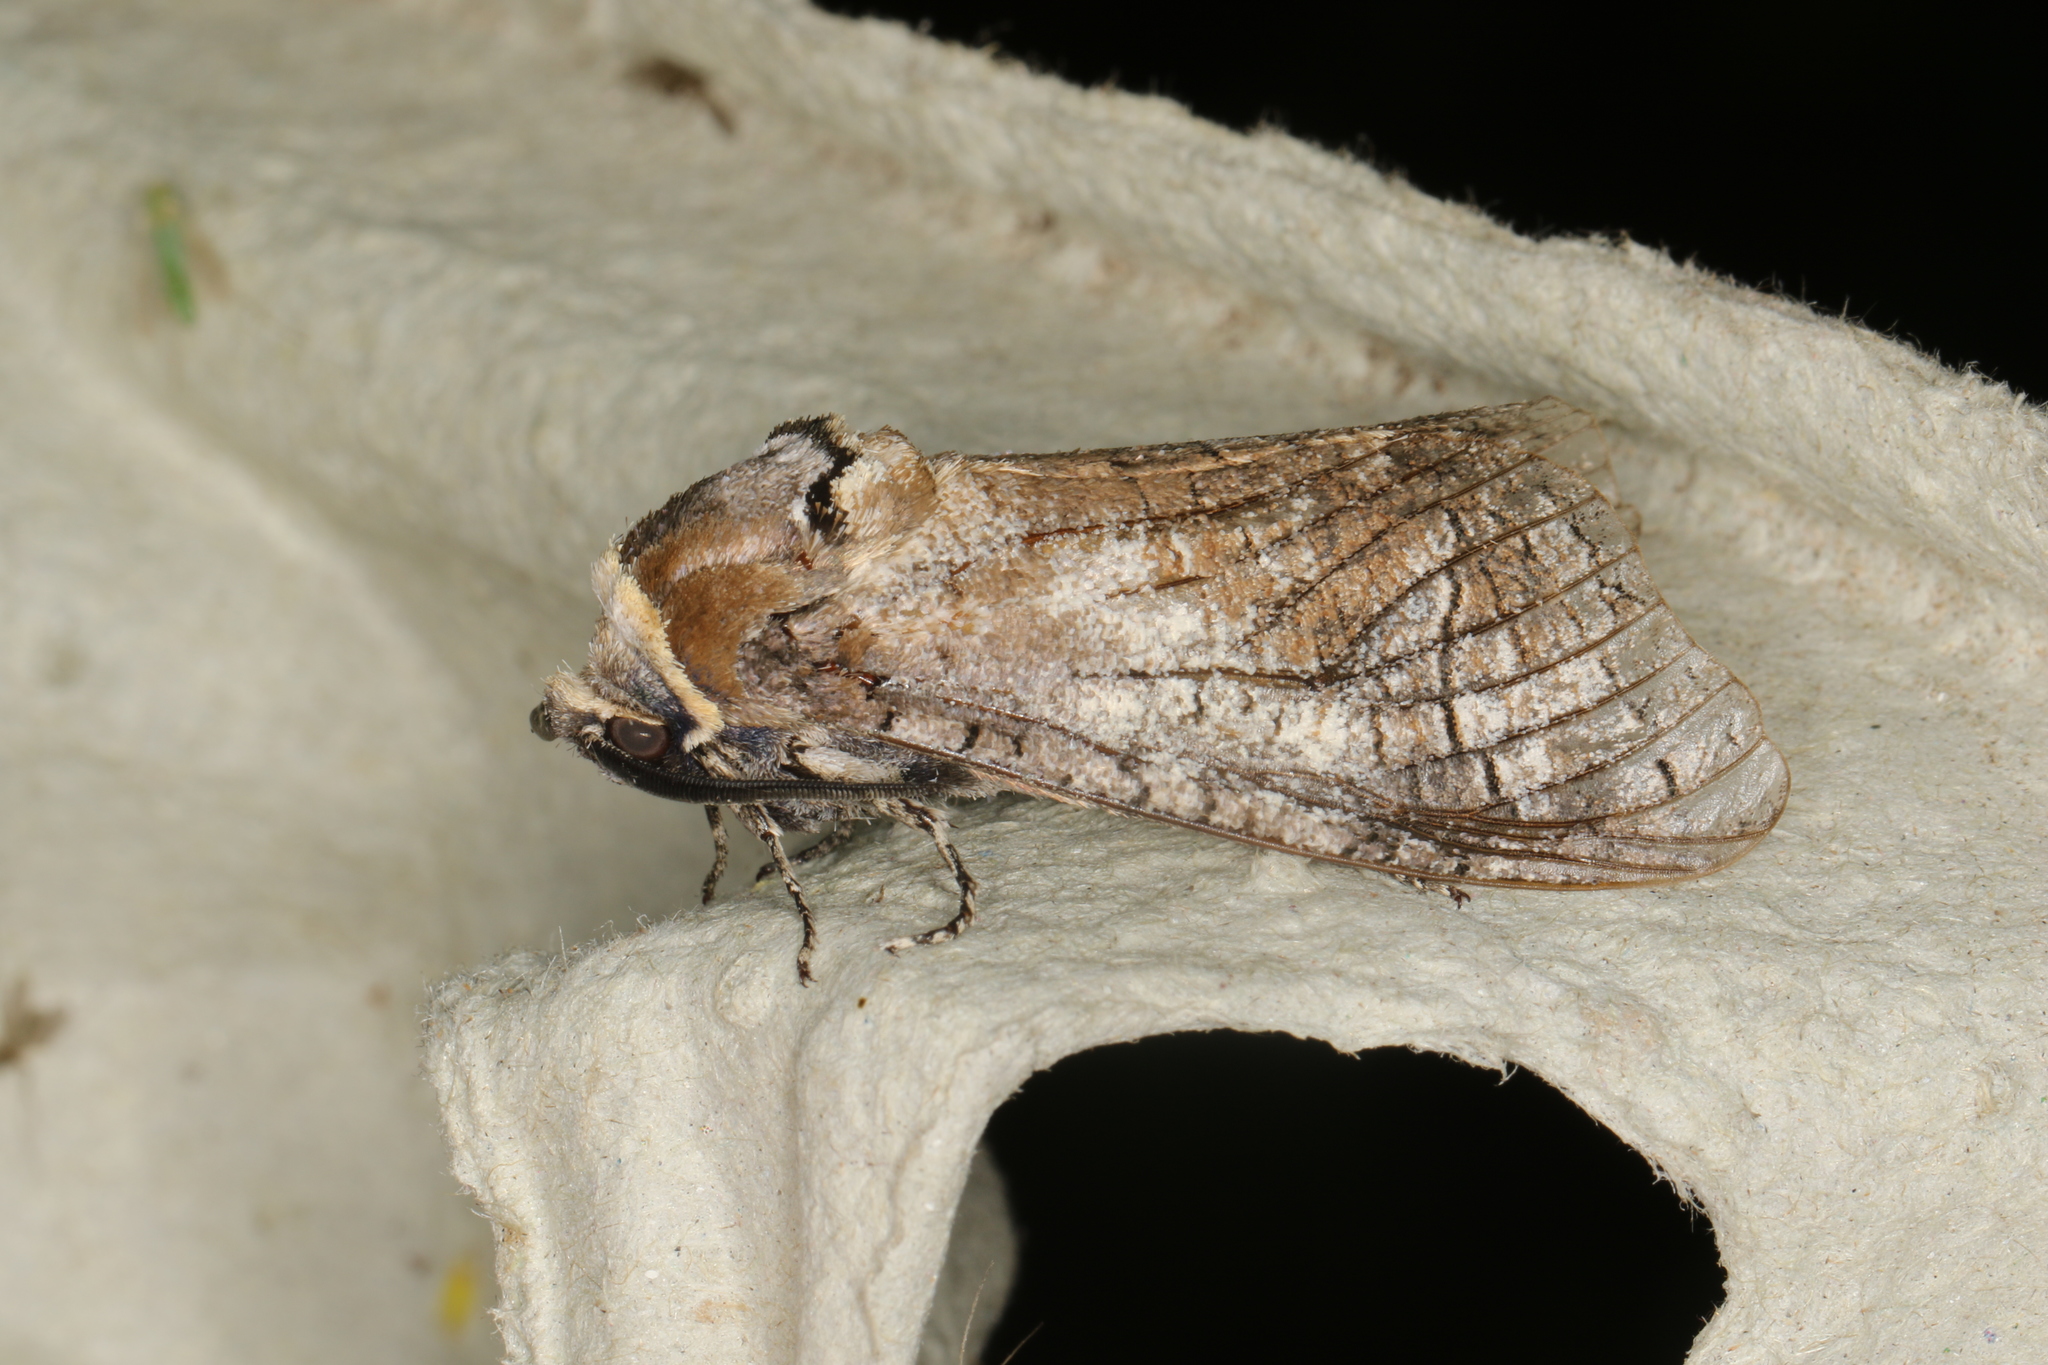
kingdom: Animalia
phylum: Arthropoda
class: Insecta
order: Lepidoptera
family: Cossidae
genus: Cossus
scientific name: Cossus cossus
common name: Goat moth
